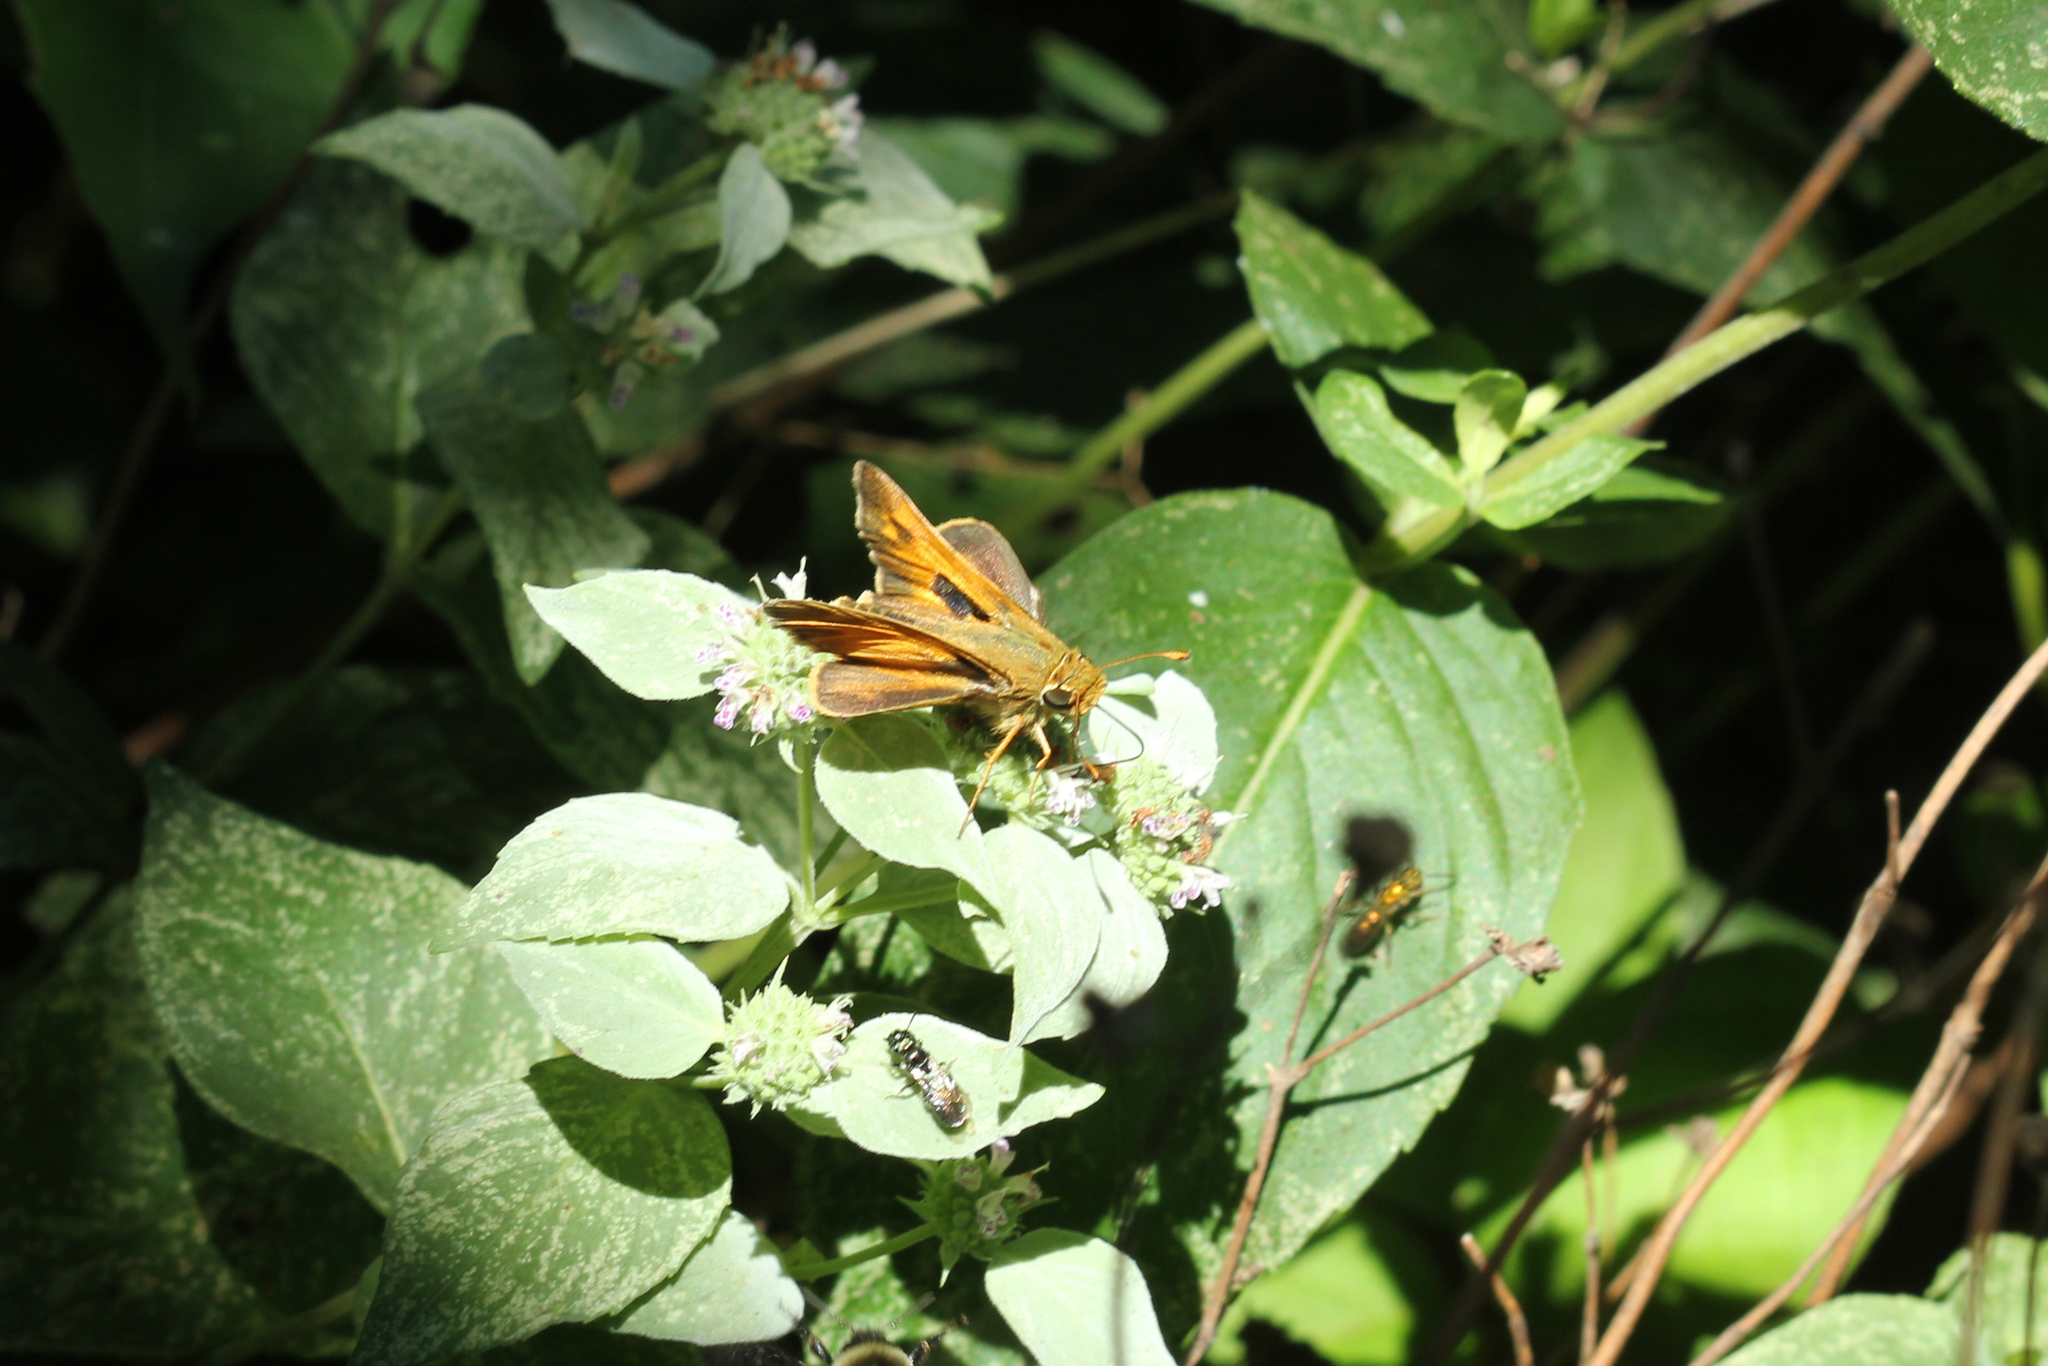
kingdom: Animalia
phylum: Arthropoda
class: Insecta
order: Lepidoptera
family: Hesperiidae
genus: Atalopedes
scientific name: Atalopedes
